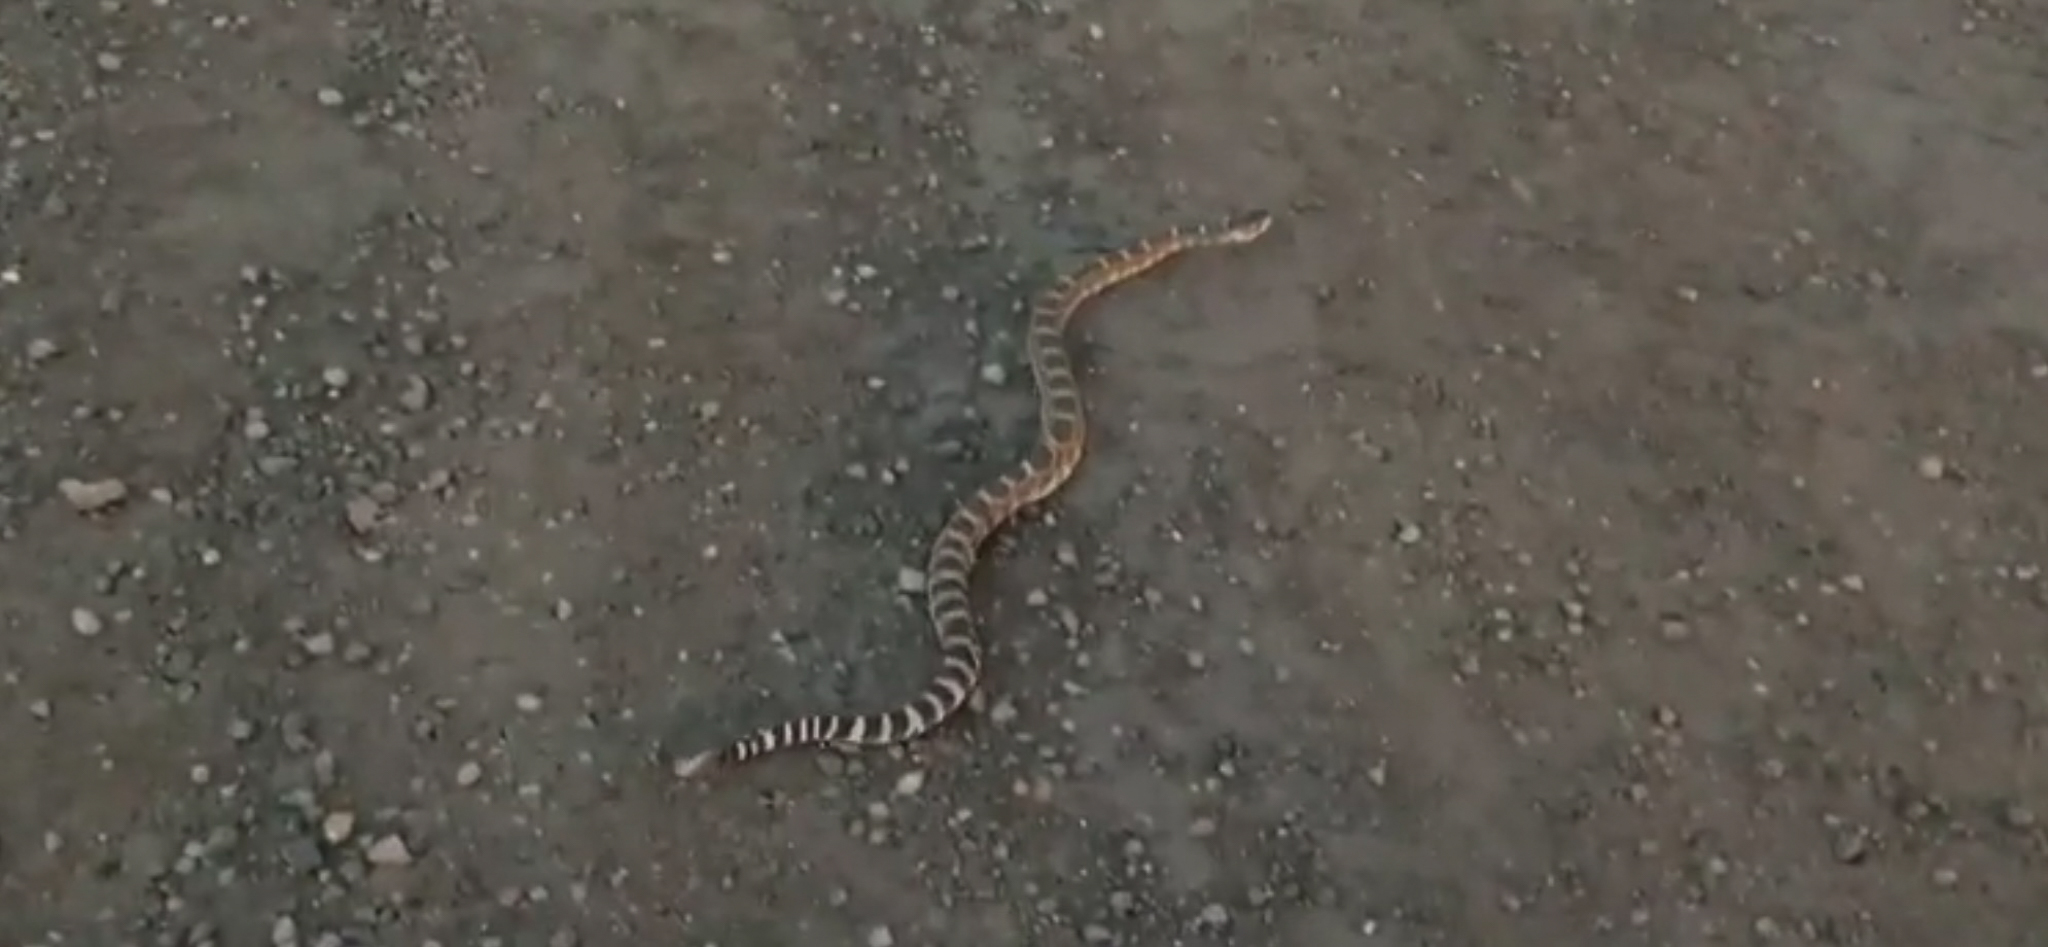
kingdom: Animalia
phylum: Chordata
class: Squamata
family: Viperidae
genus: Crotalus
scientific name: Crotalus oreganus
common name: Abyssus
